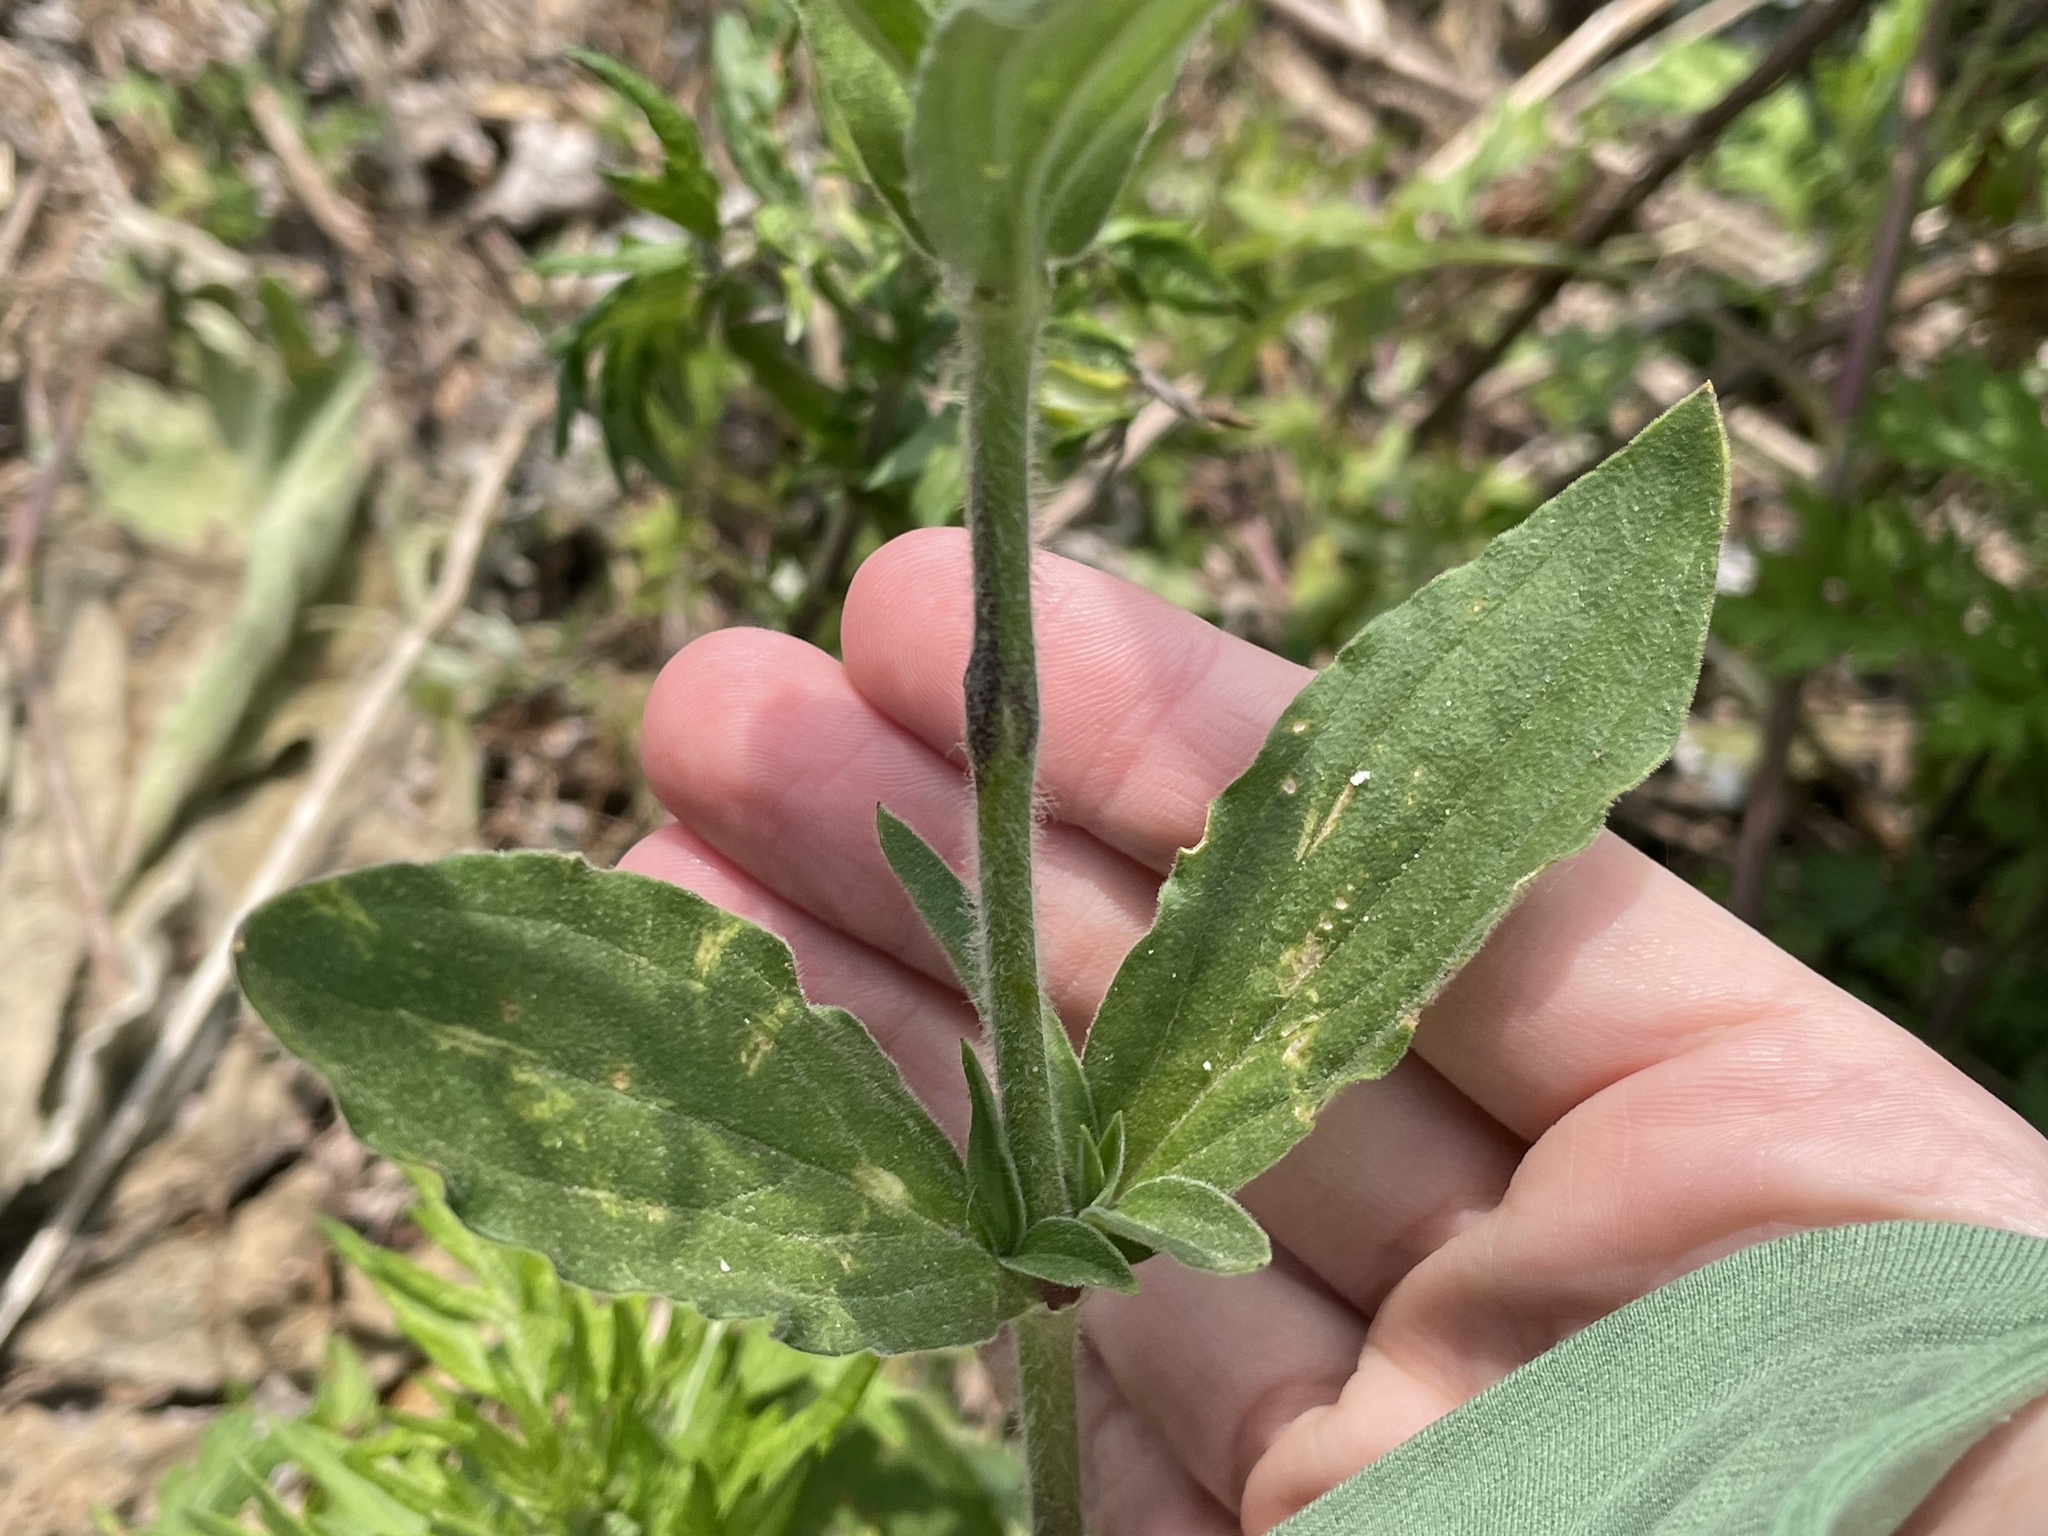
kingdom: Plantae
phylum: Tracheophyta
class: Magnoliopsida
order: Caryophyllales
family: Caryophyllaceae
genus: Silene
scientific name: Silene latifolia
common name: White campion
